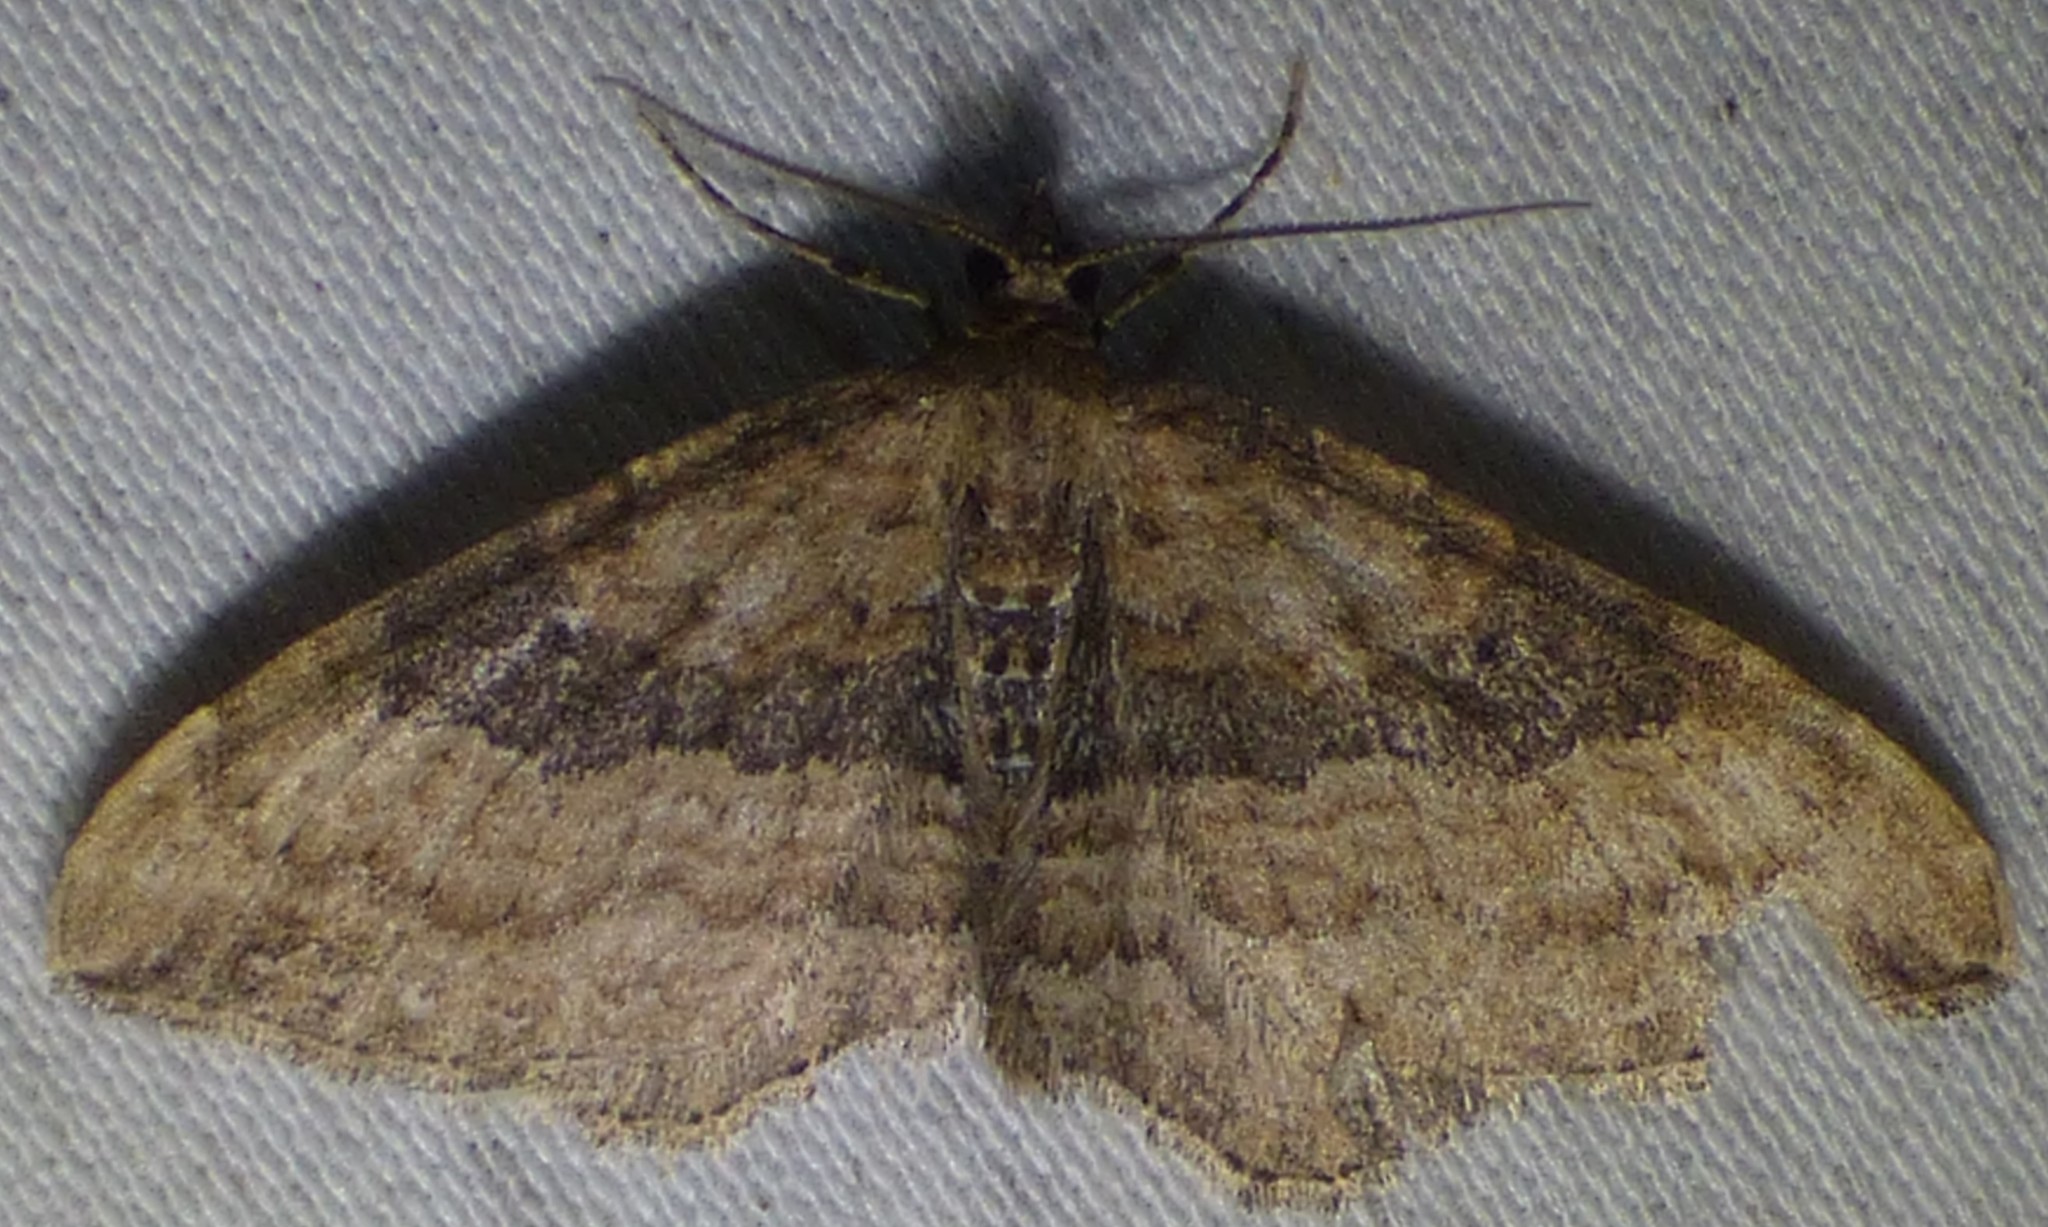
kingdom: Animalia
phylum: Arthropoda
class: Insecta
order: Lepidoptera
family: Geometridae
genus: Orthonama
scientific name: Orthonama obstipata
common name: The gem
